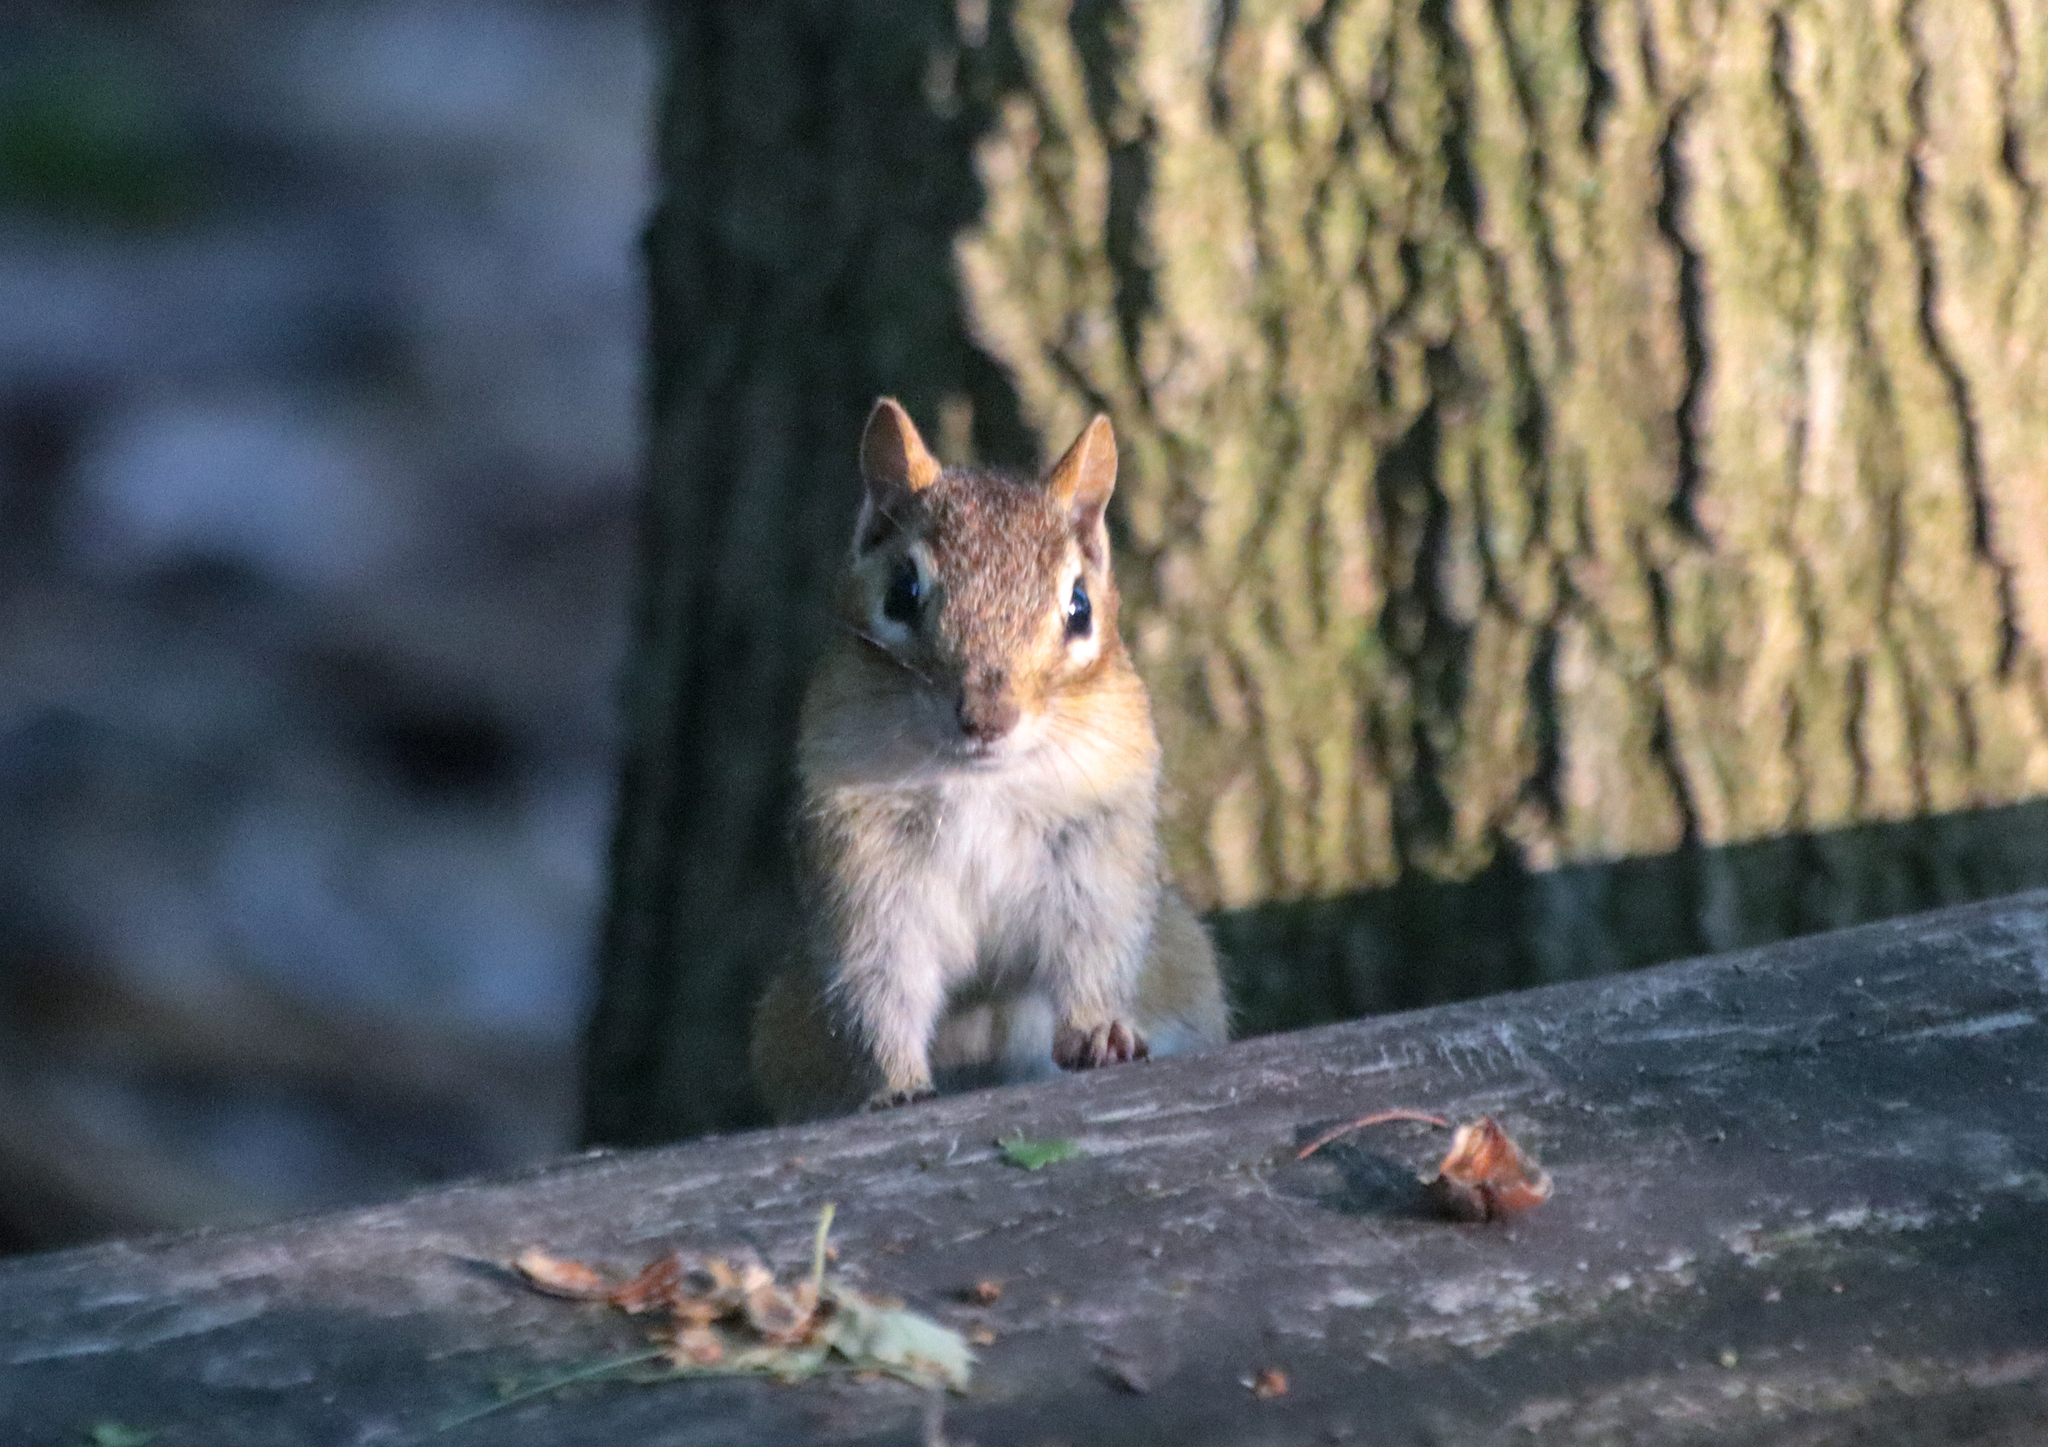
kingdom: Animalia
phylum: Chordata
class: Mammalia
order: Rodentia
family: Sciuridae
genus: Tamias
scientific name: Tamias striatus
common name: Eastern chipmunk
